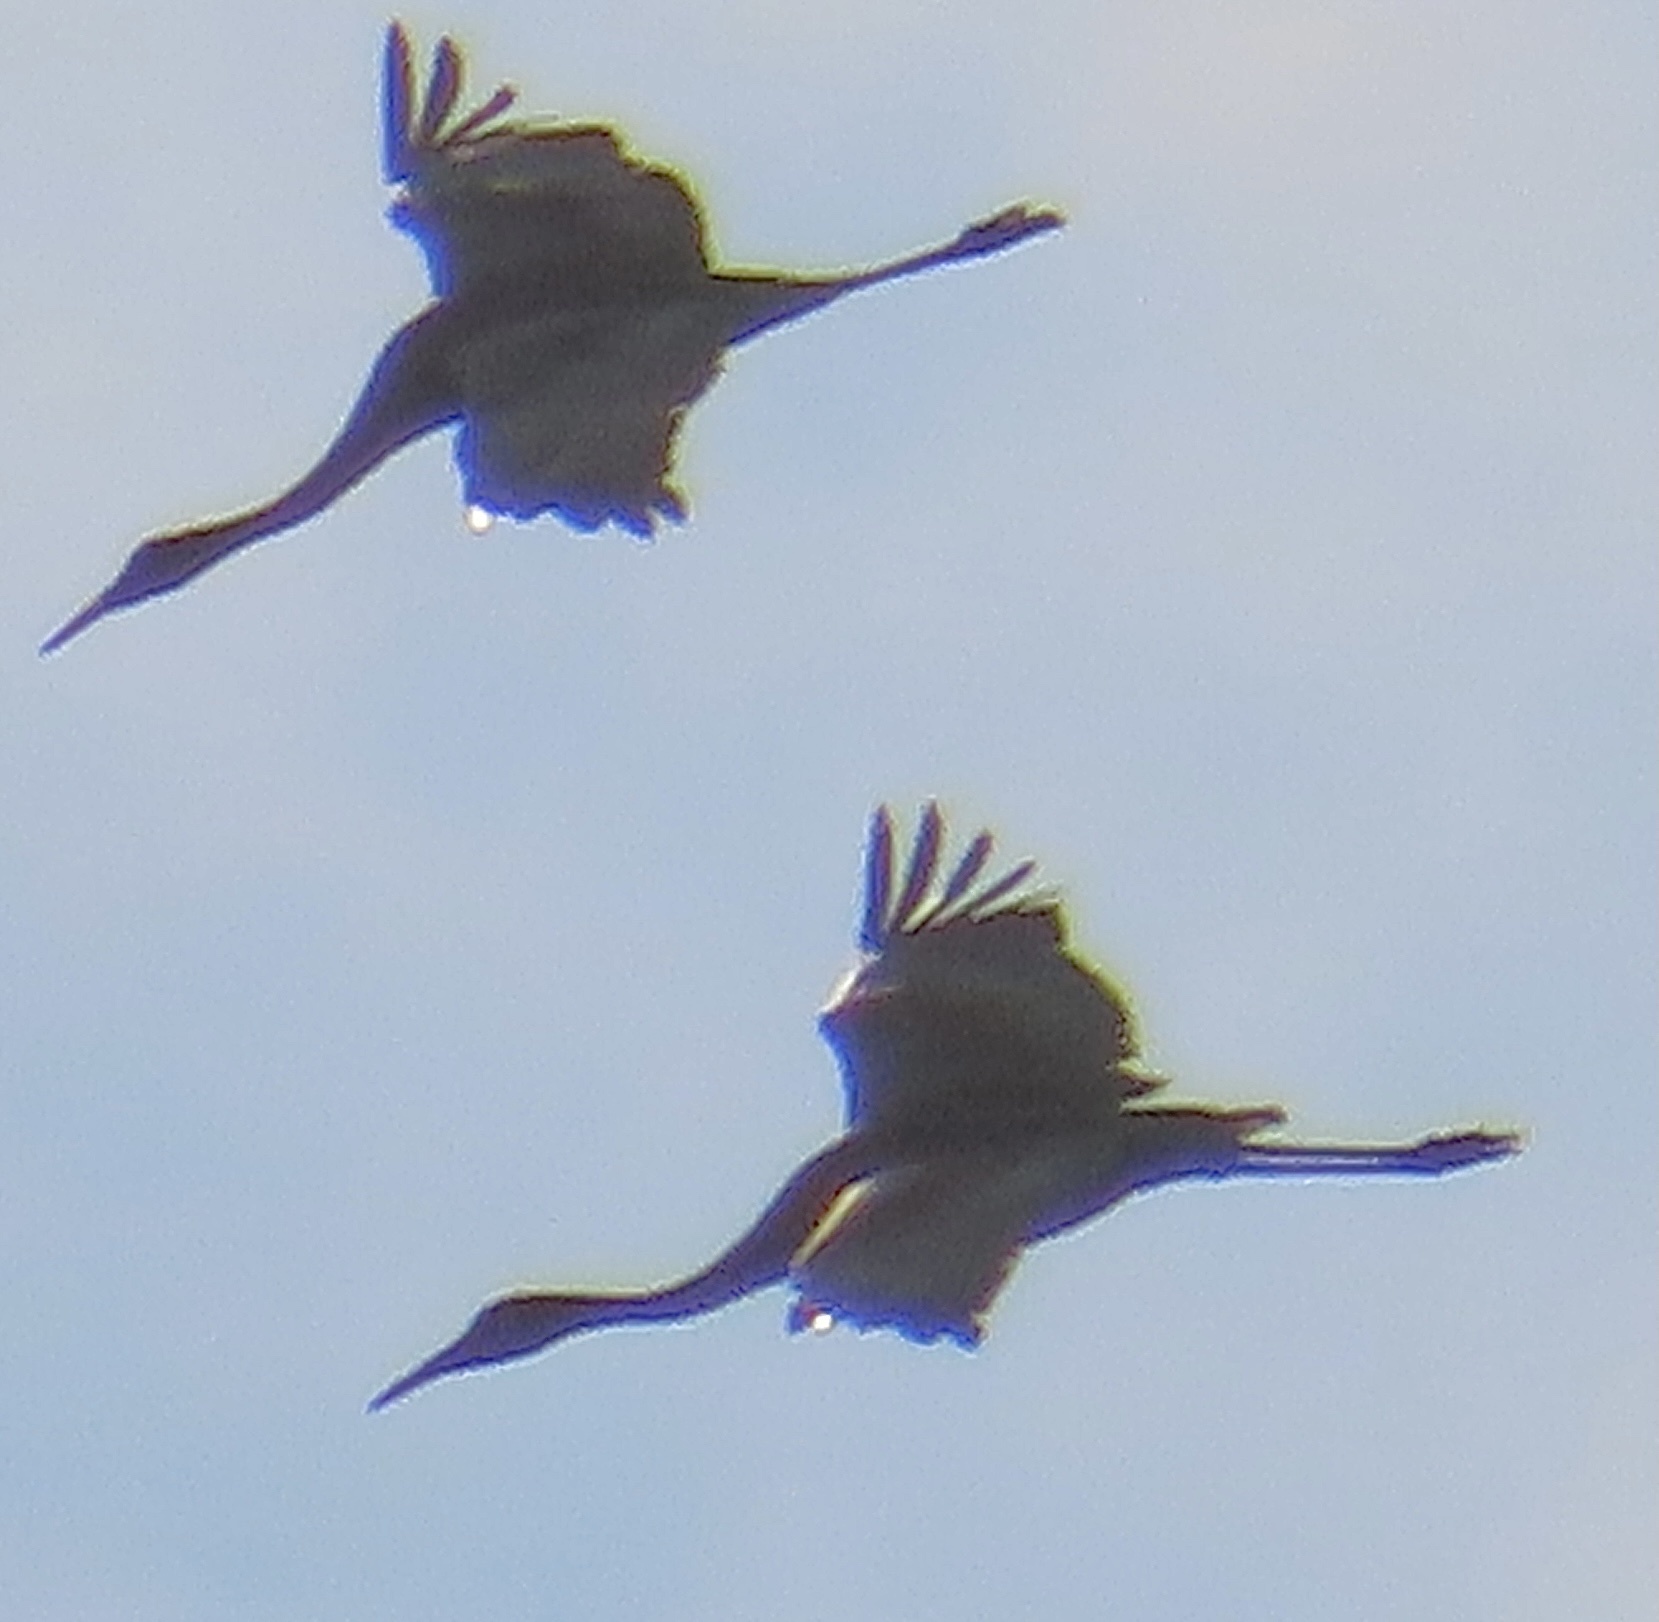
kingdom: Animalia
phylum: Chordata
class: Aves
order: Gruiformes
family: Gruidae
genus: Grus
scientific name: Grus canadensis
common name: Sandhill crane
